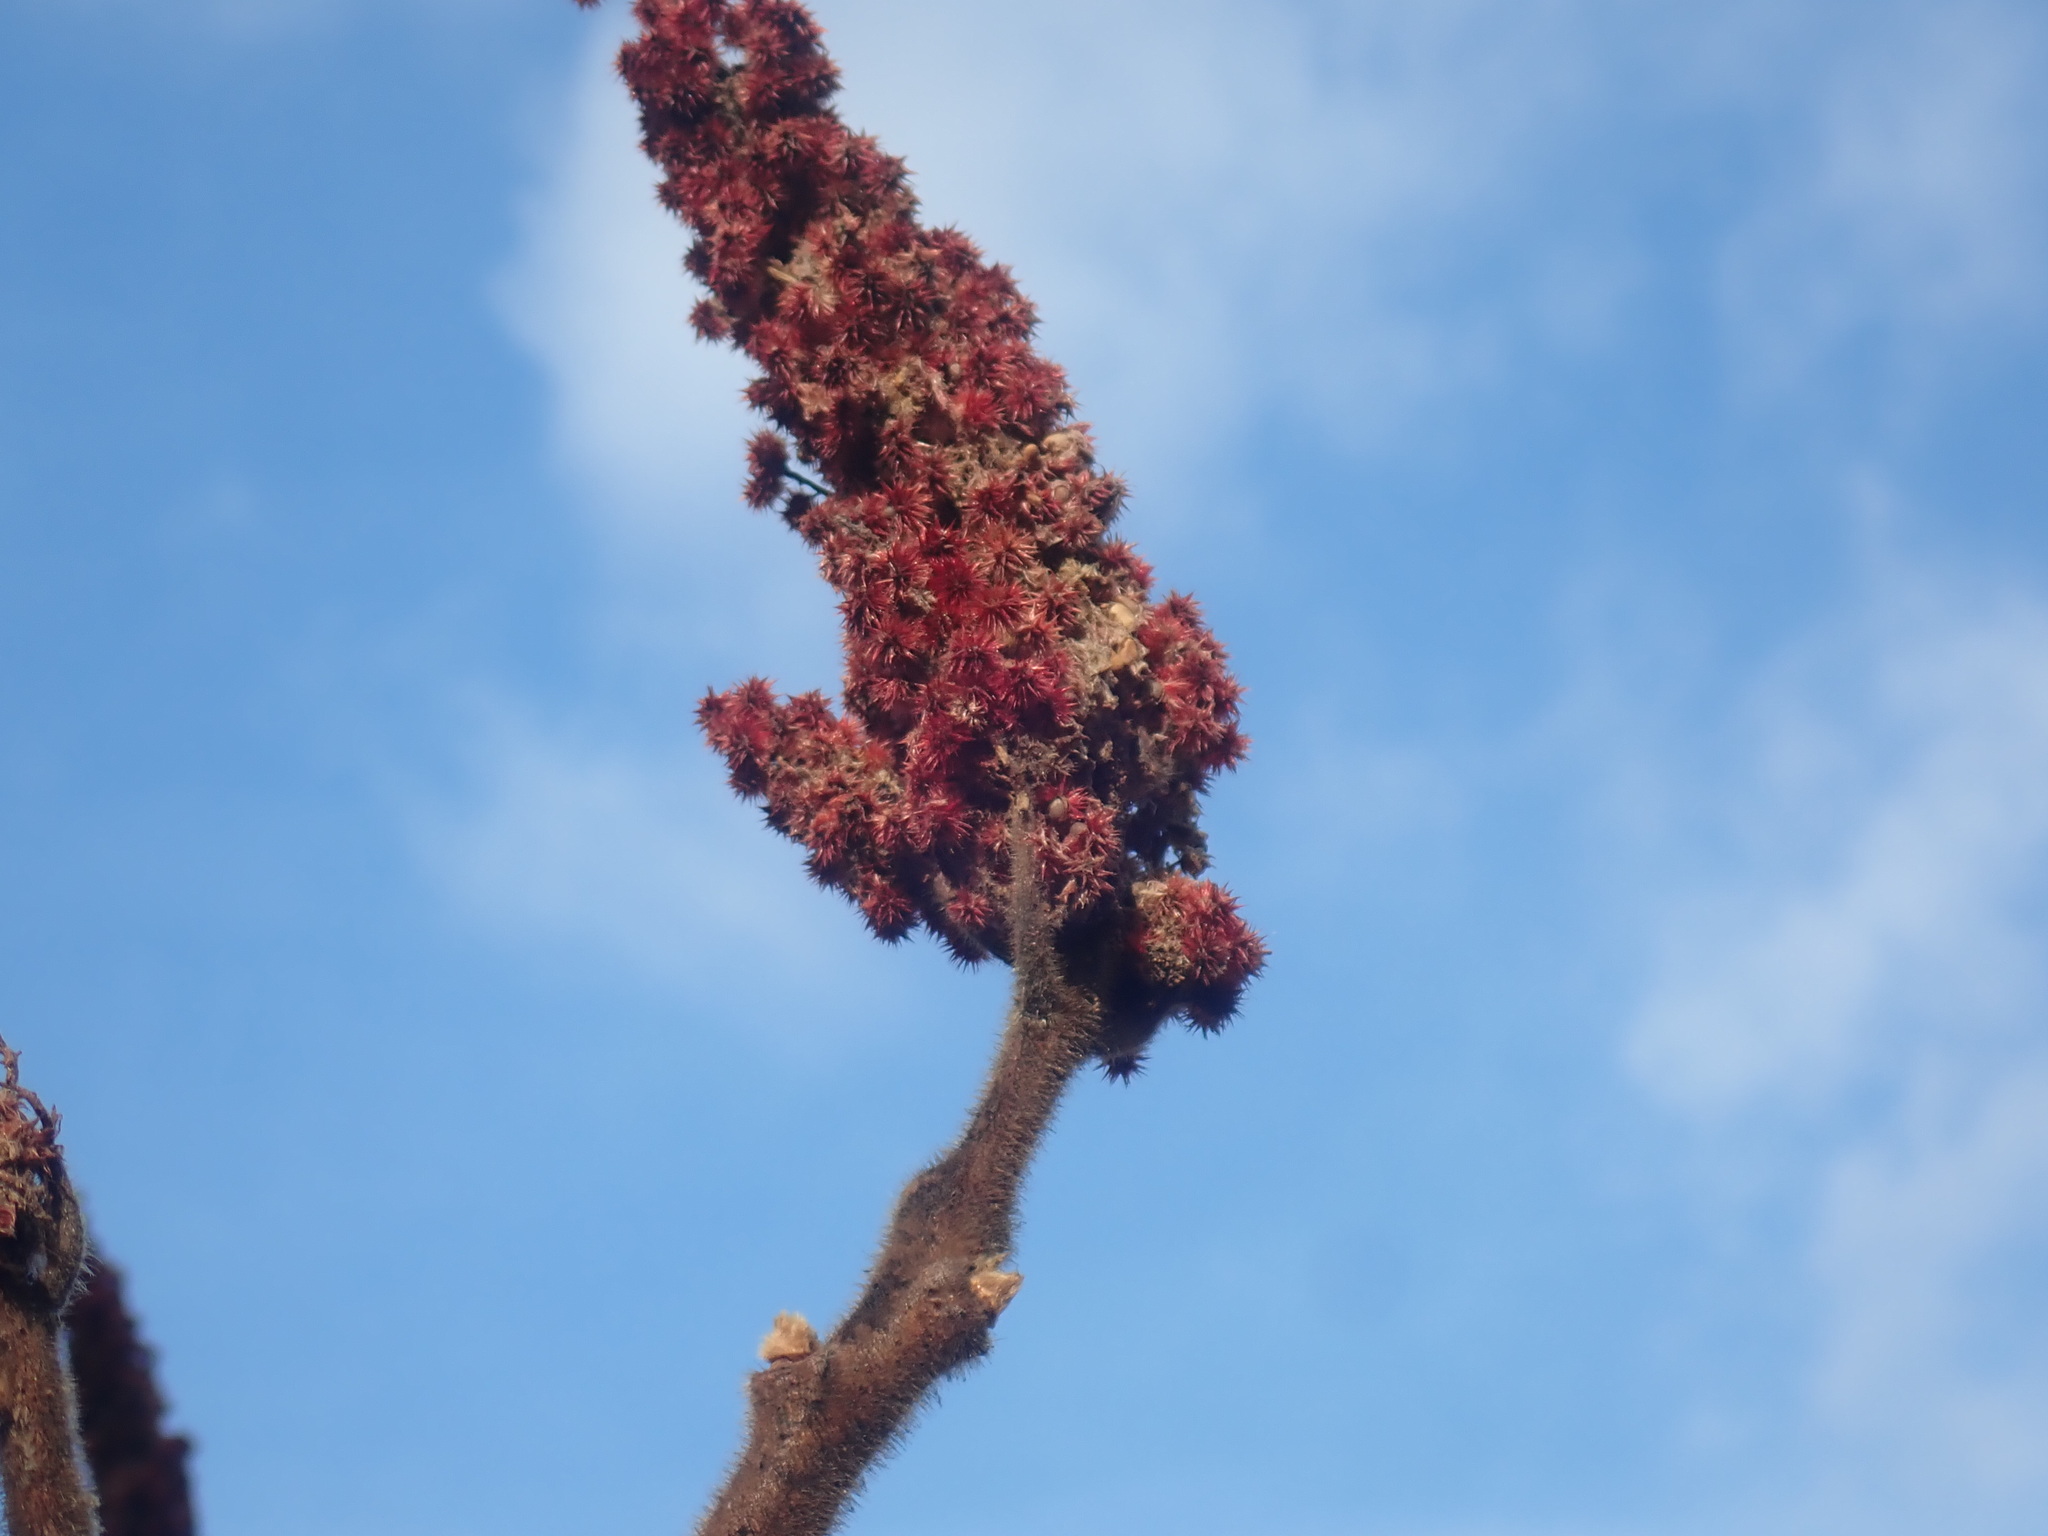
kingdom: Plantae
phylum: Tracheophyta
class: Magnoliopsida
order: Sapindales
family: Anacardiaceae
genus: Rhus
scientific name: Rhus typhina
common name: Staghorn sumac
